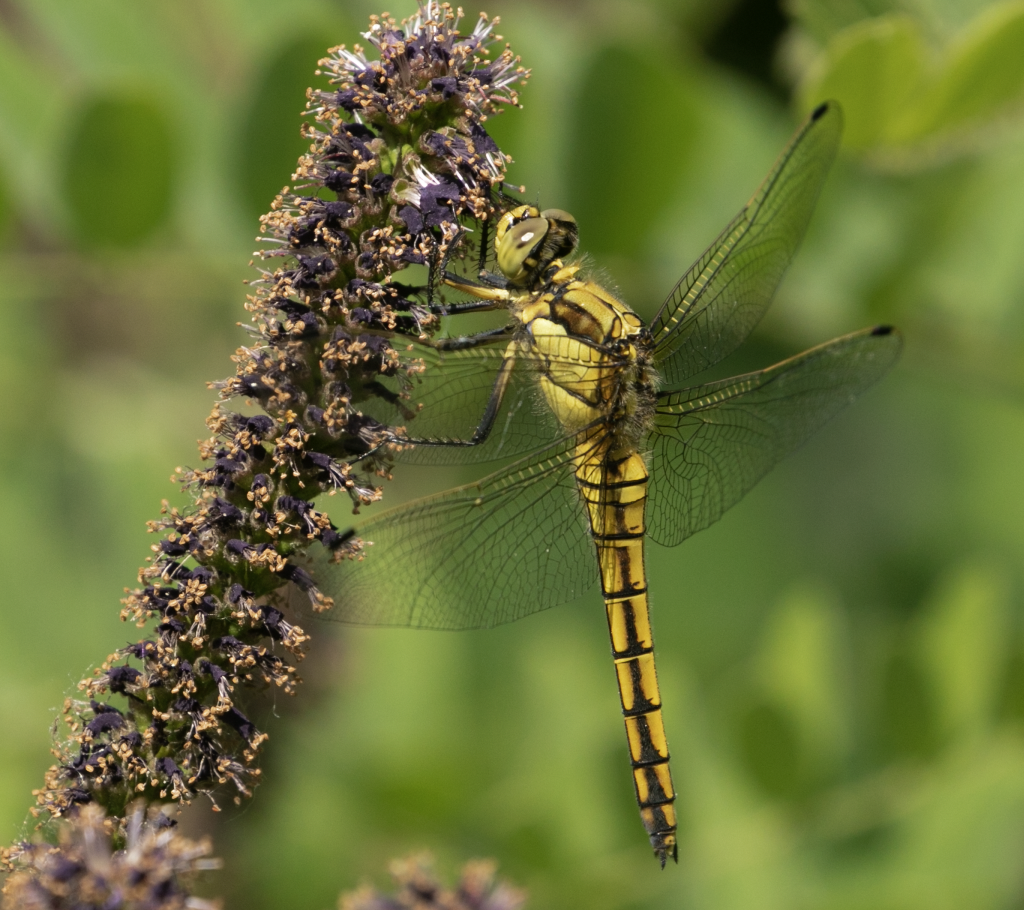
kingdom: Animalia
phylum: Arthropoda
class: Insecta
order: Odonata
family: Libellulidae
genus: Orthetrum
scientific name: Orthetrum cancellatum
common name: Black-tailed skimmer
